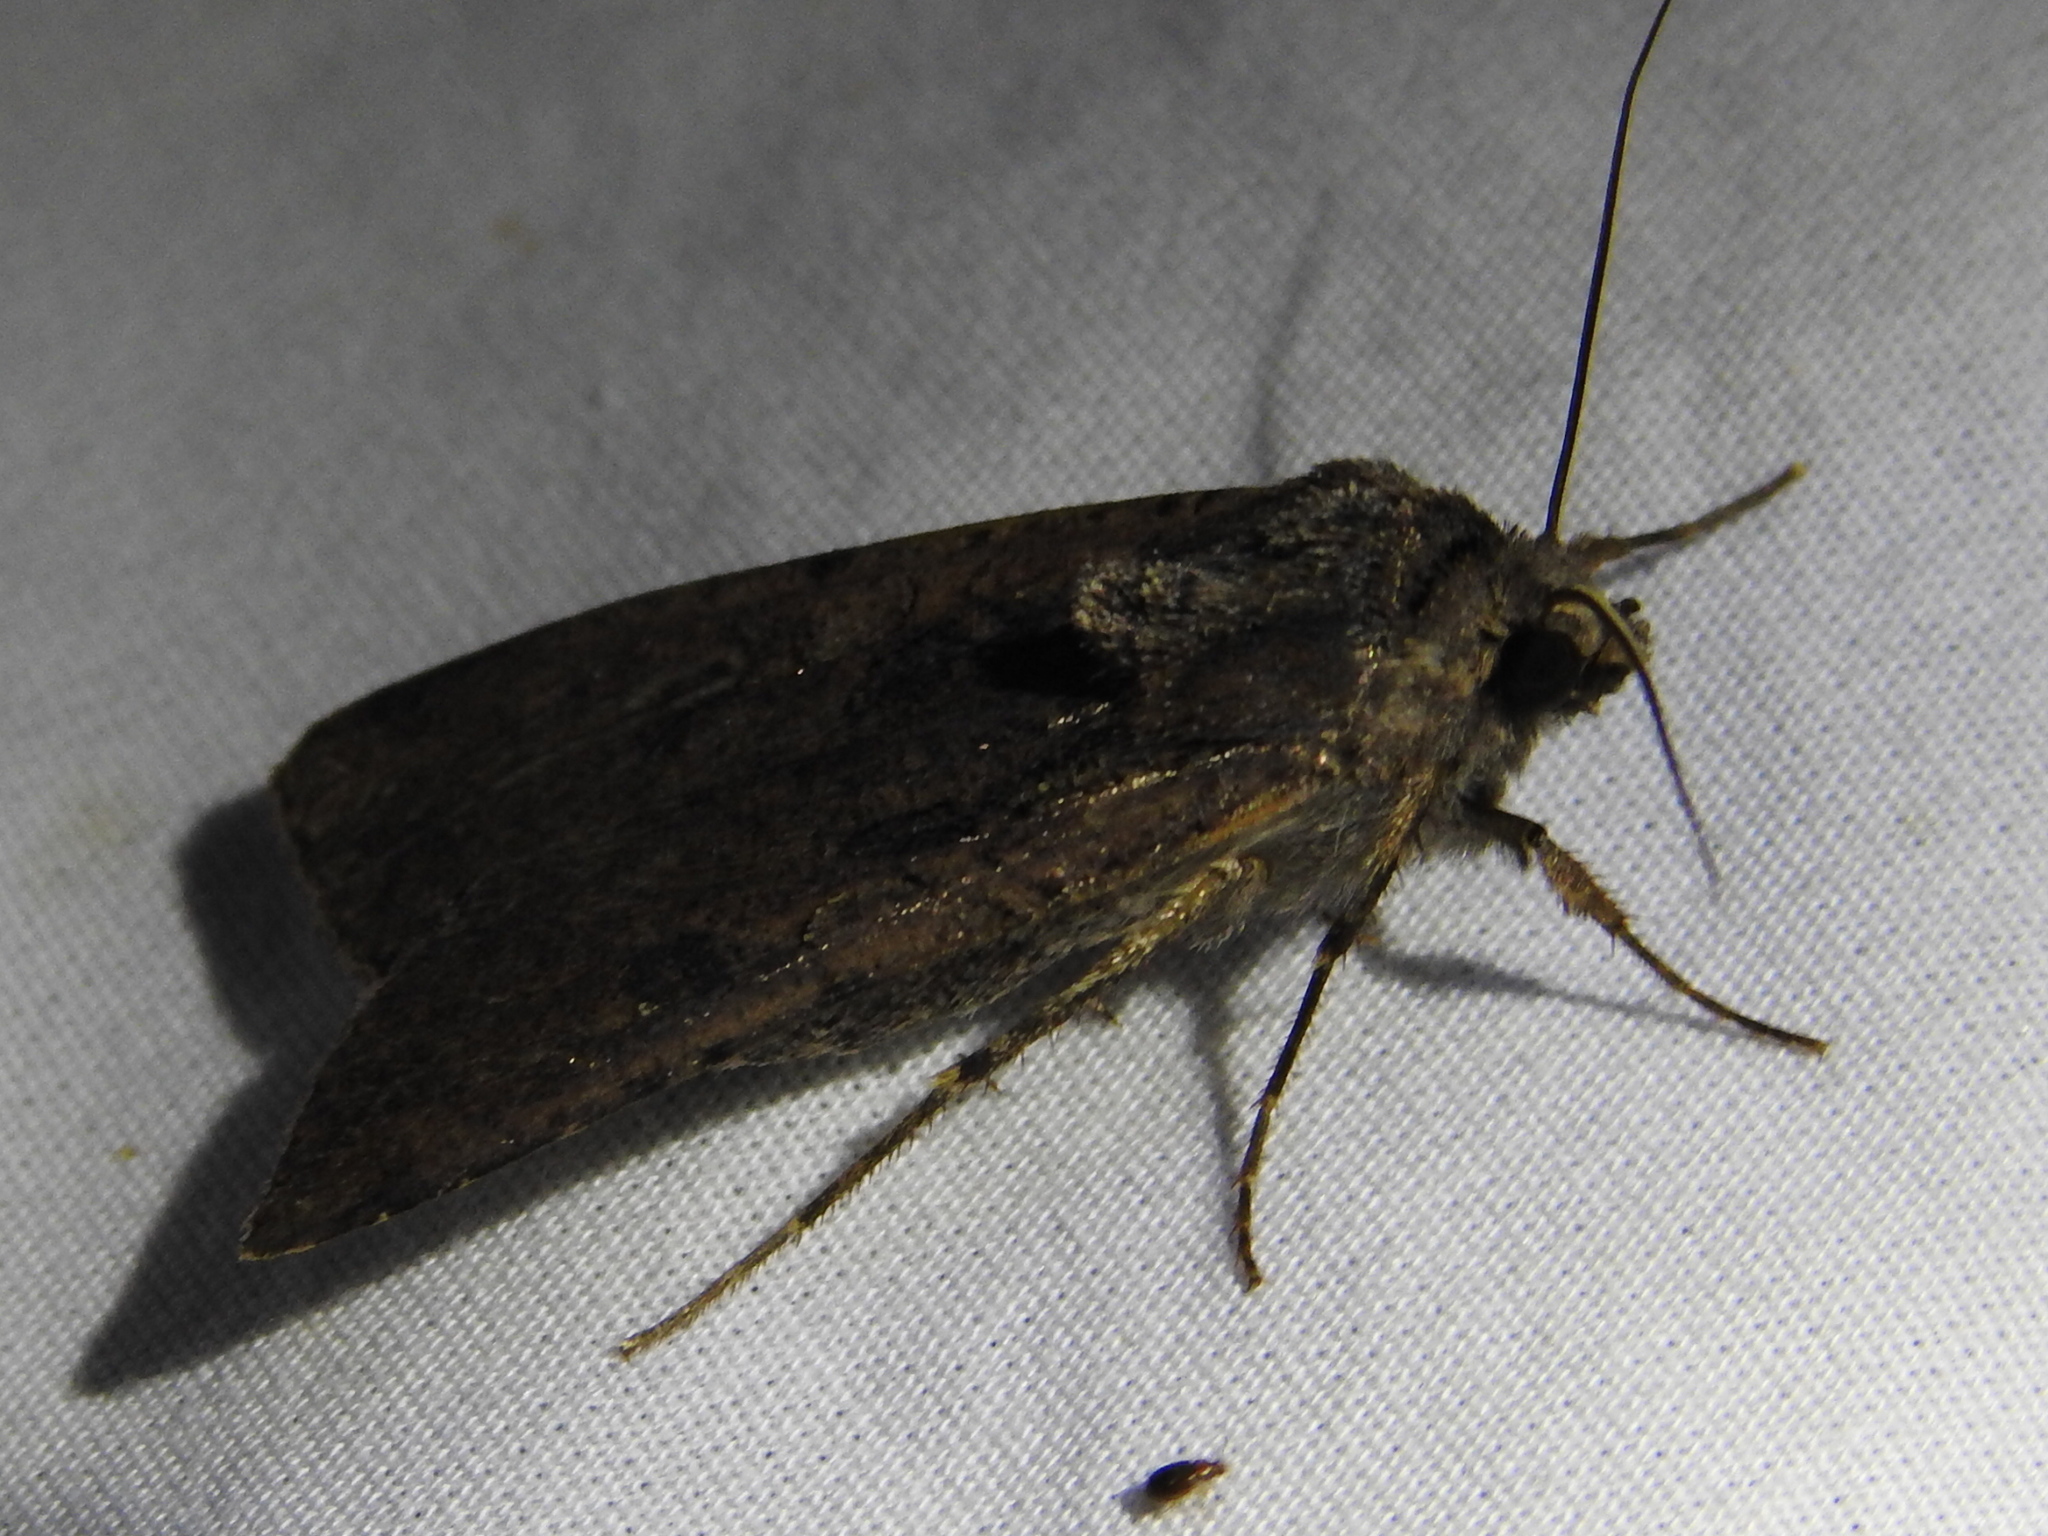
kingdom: Animalia
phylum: Arthropoda
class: Insecta
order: Lepidoptera
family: Noctuidae
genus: Peridroma
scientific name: Peridroma saucia
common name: Pearly underwing
